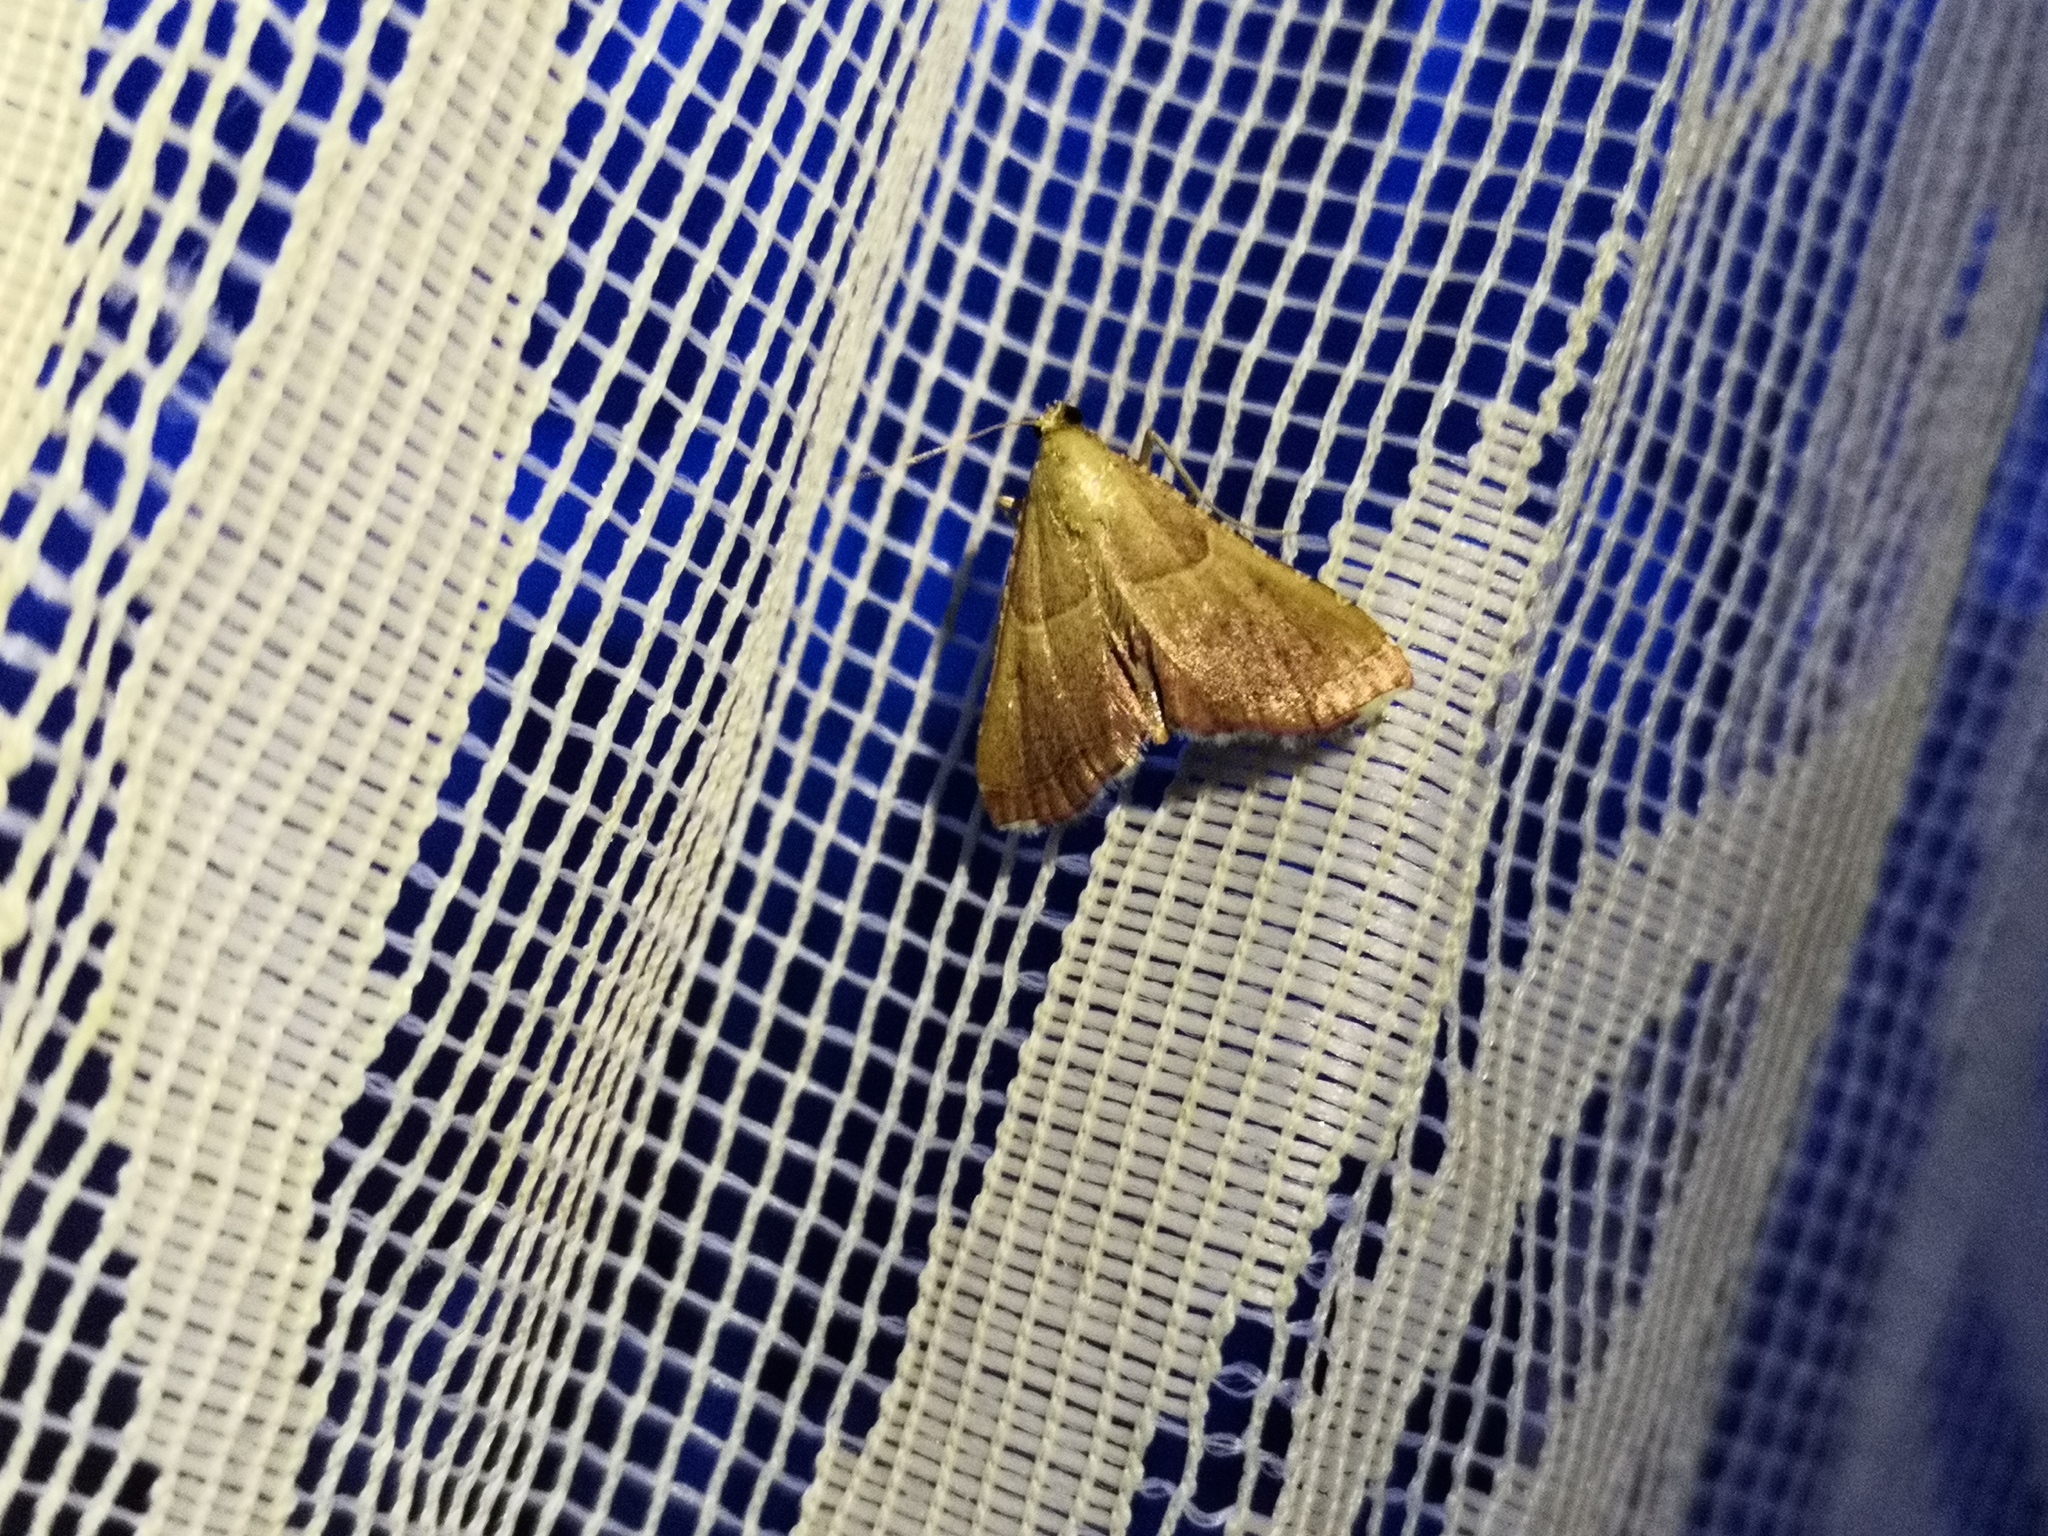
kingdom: Animalia
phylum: Arthropoda
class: Insecta
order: Lepidoptera
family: Pyralidae
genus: Endotricha
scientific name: Endotricha flammealis
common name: Rosy tabby
